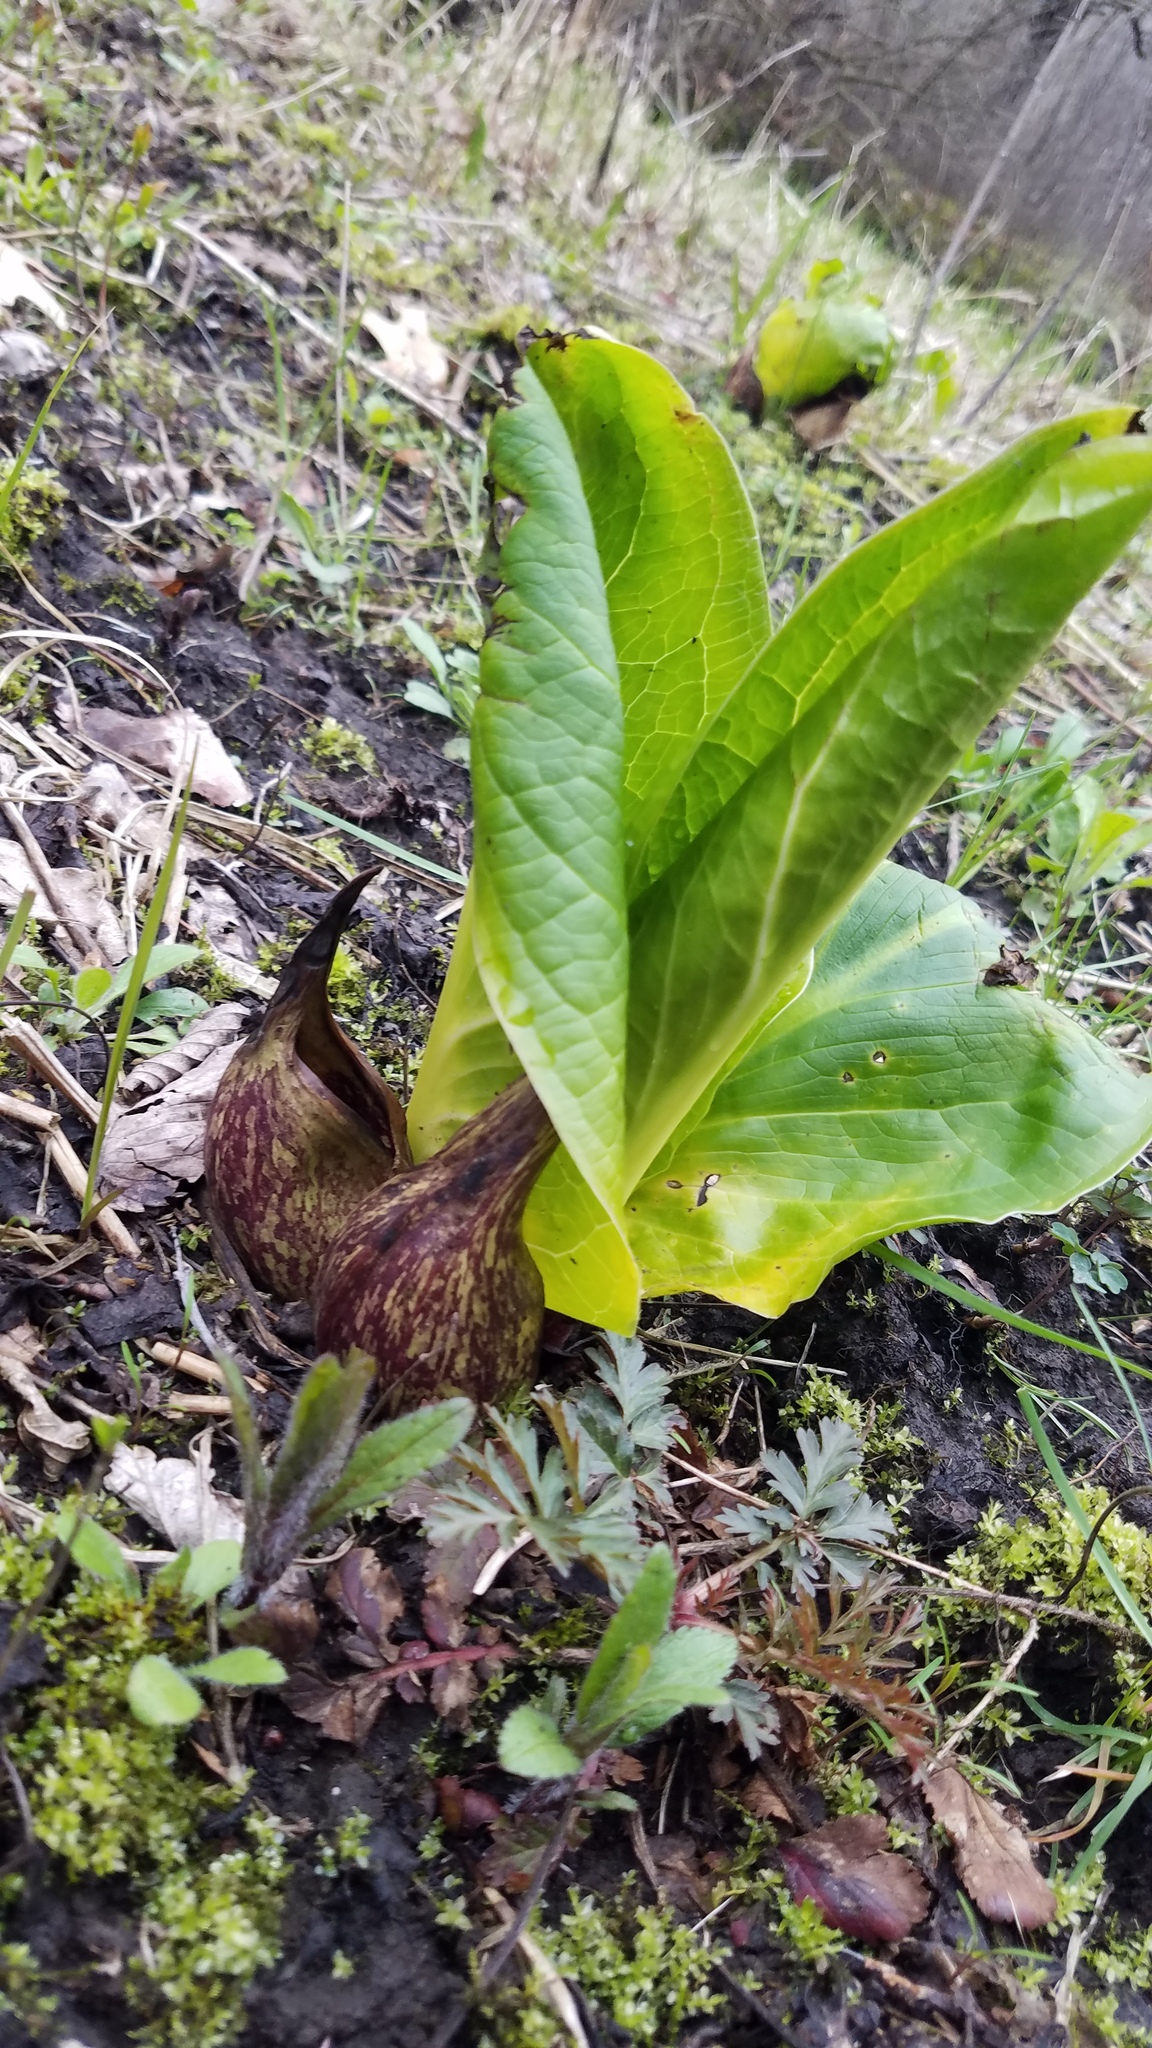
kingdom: Plantae
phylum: Tracheophyta
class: Liliopsida
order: Alismatales
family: Araceae
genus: Symplocarpus
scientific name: Symplocarpus foetidus
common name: Eastern skunk cabbage
